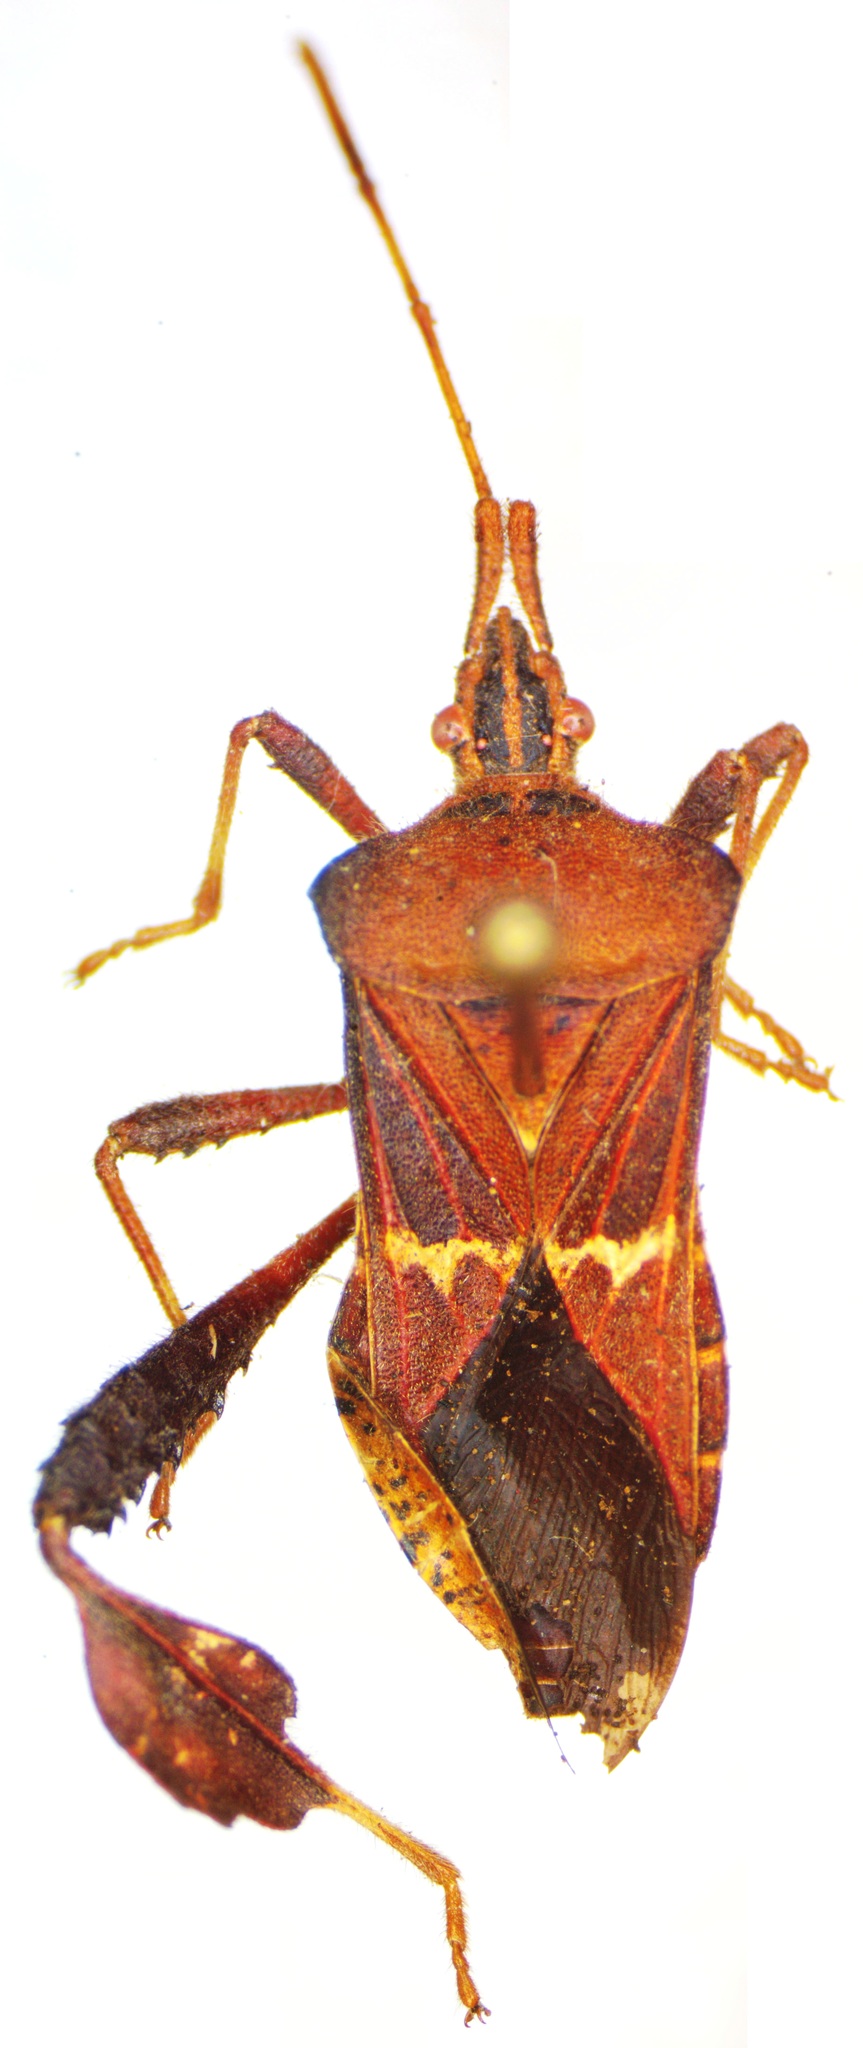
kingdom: Animalia
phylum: Arthropoda
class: Insecta
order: Hemiptera
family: Coreidae
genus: Leptoglossus
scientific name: Leptoglossus brevirostris
